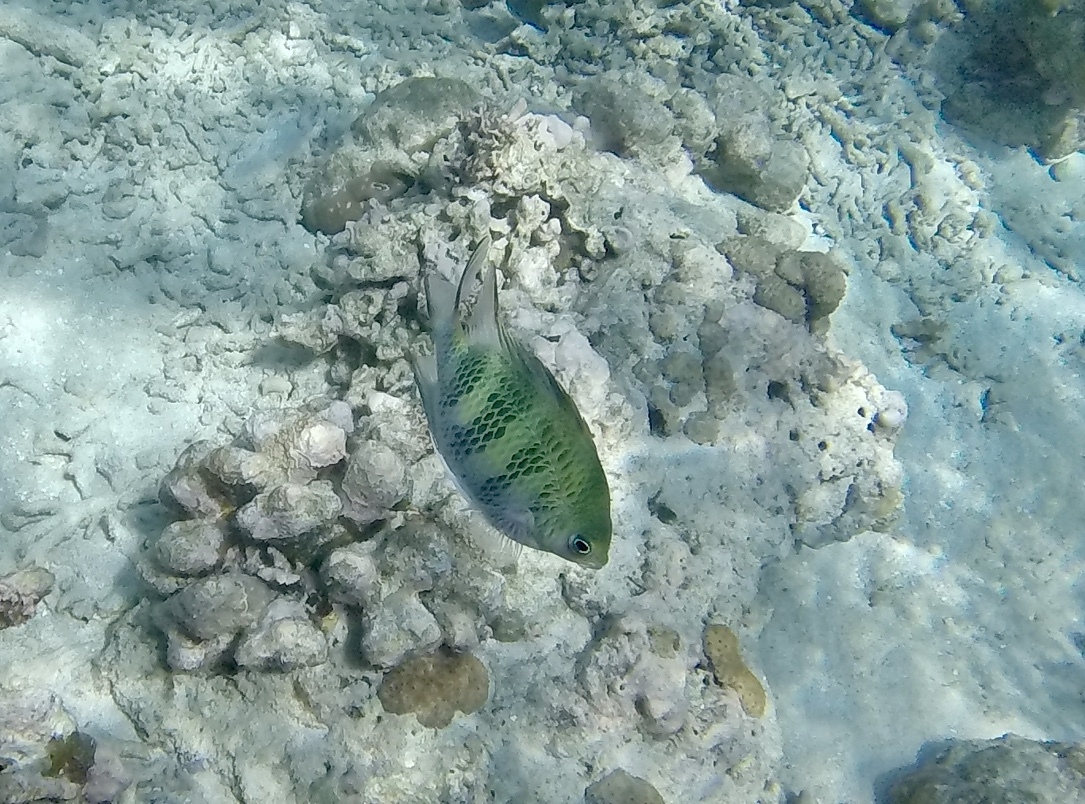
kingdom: Animalia
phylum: Chordata
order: Perciformes
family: Pomacentridae
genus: Amblyglyphidodon
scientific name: Amblyglyphidodon curacao
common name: Staghorn damsel
